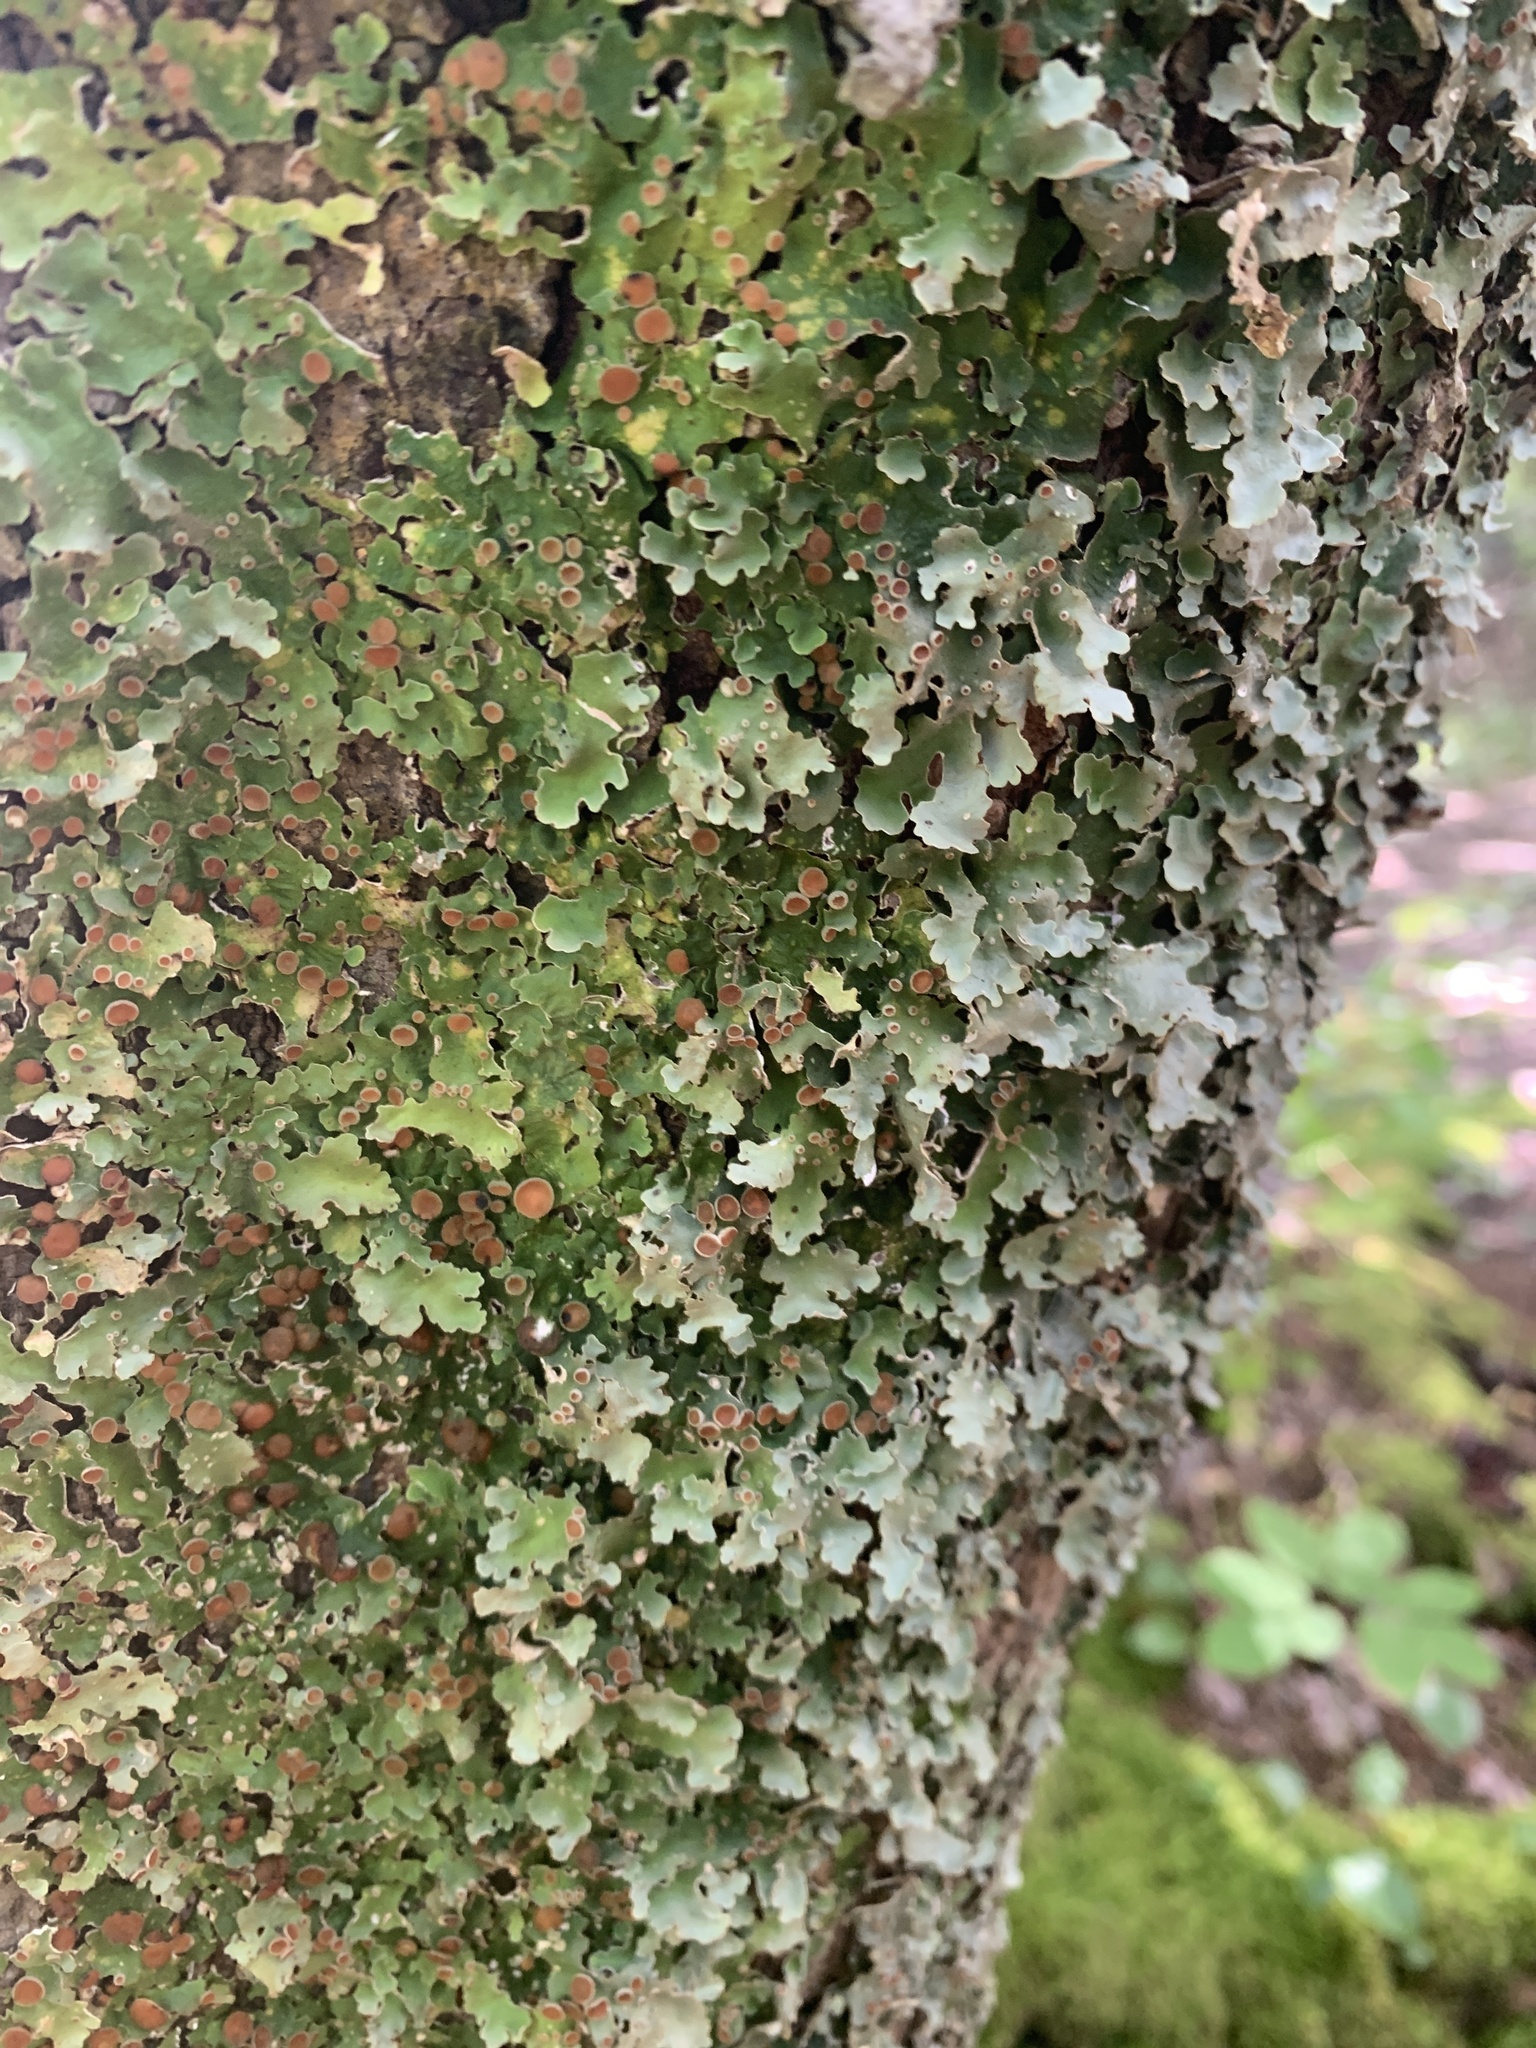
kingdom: Fungi
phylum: Ascomycota
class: Lecanoromycetes
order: Peltigerales
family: Lobariaceae
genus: Ricasolia
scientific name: Ricasolia quercizans
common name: Smooth lungwort
